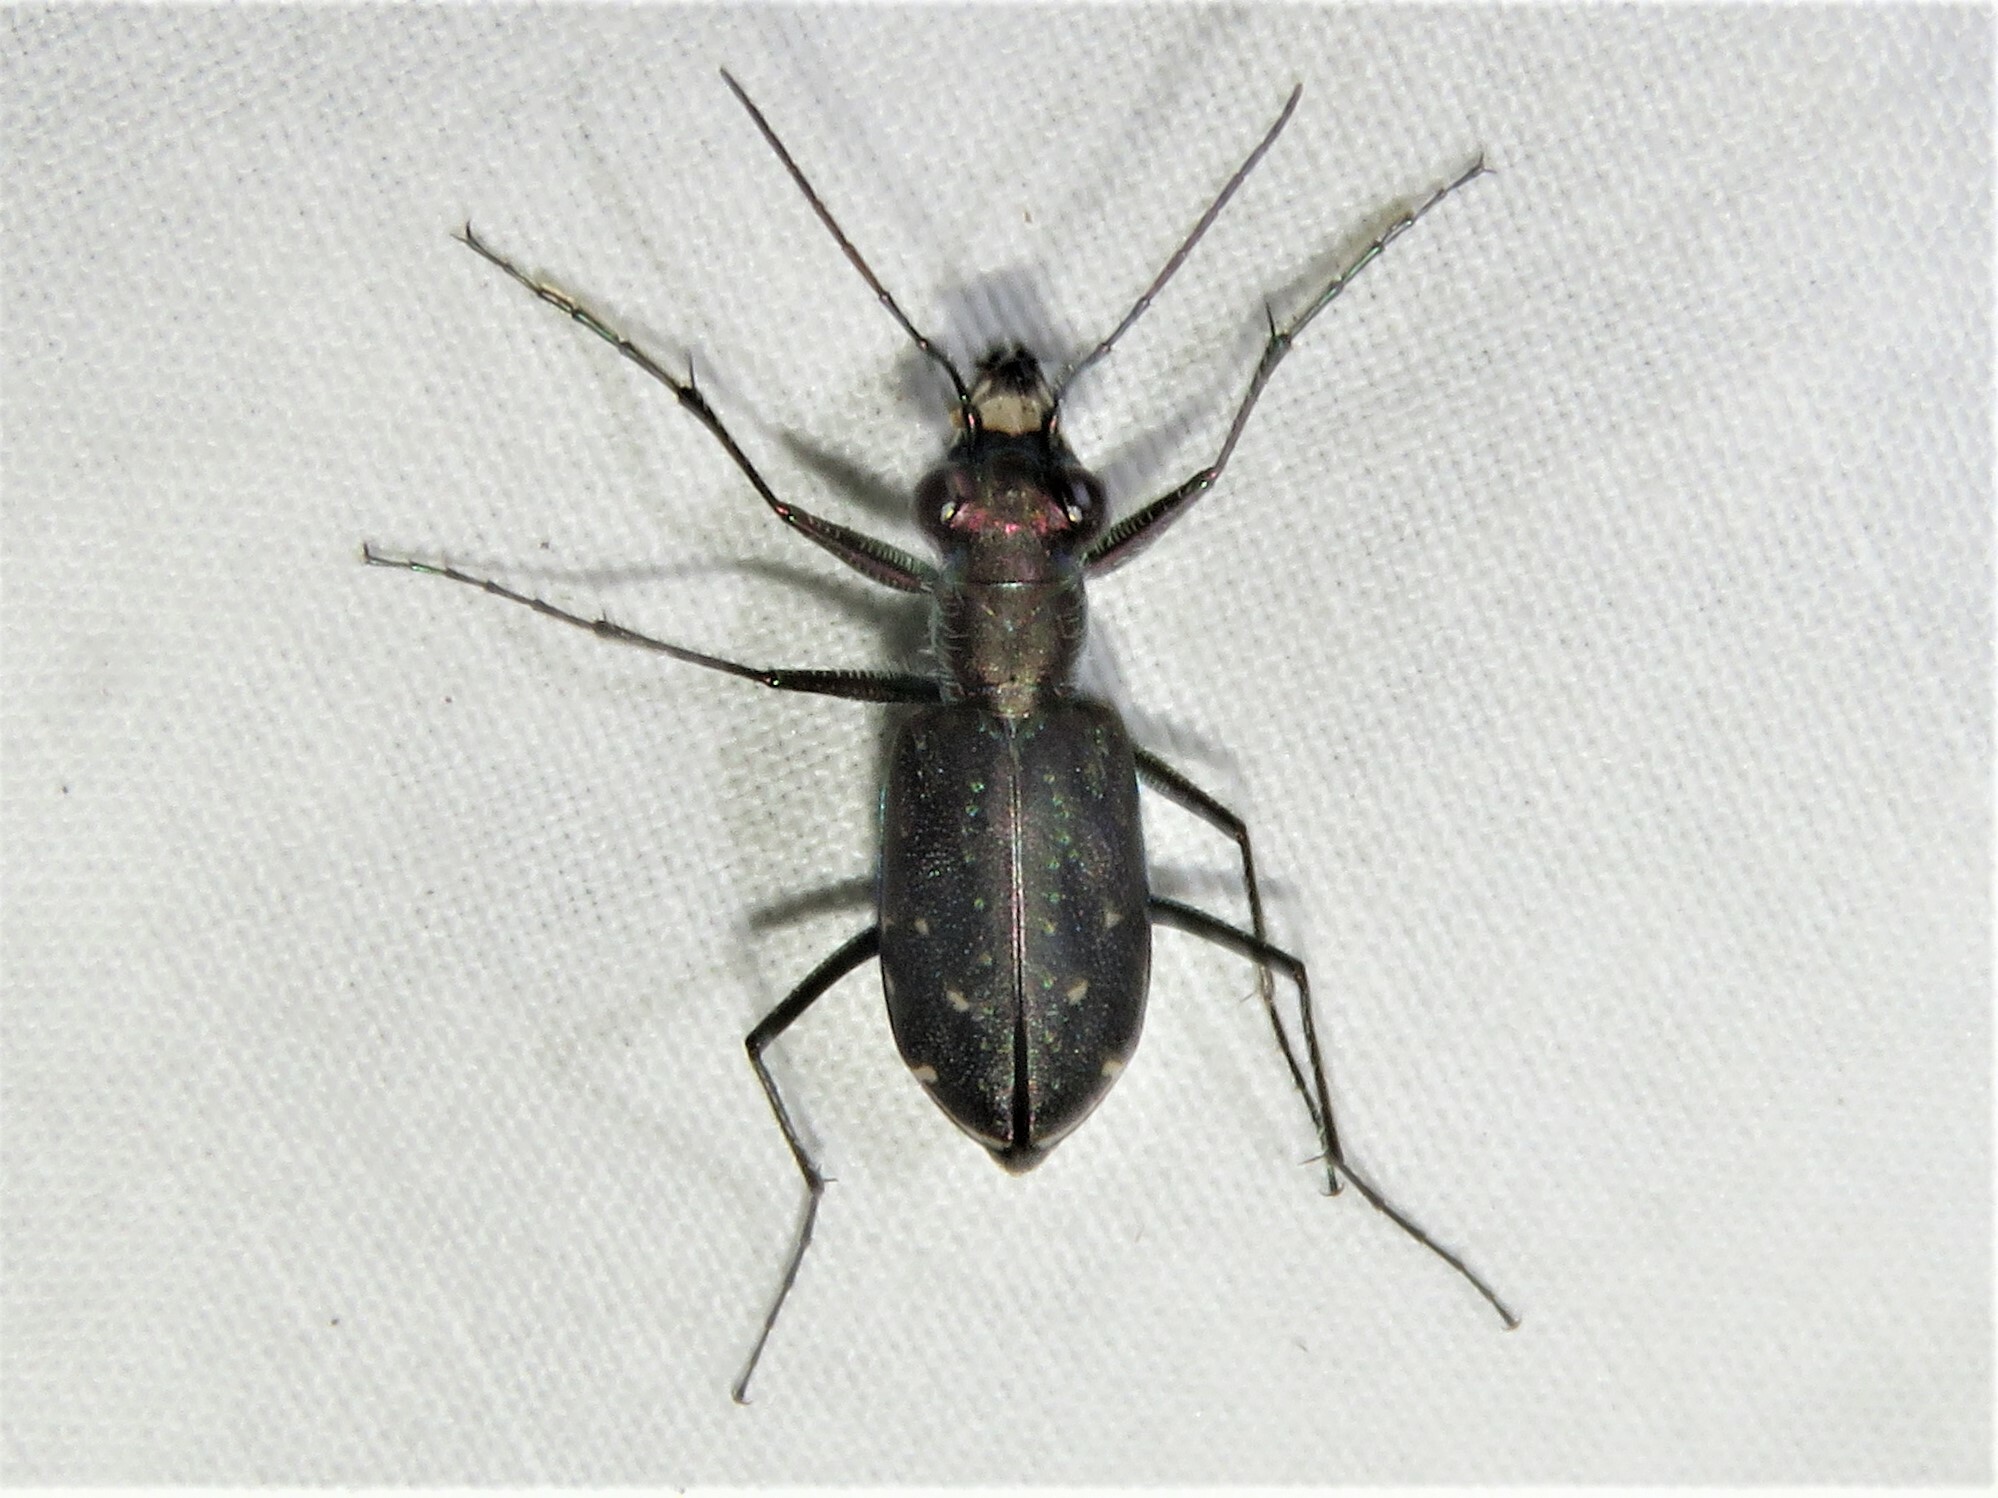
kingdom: Animalia
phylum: Arthropoda
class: Insecta
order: Coleoptera
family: Carabidae
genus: Cicindela
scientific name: Cicindela punctulata
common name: Punctured tiger beetle
